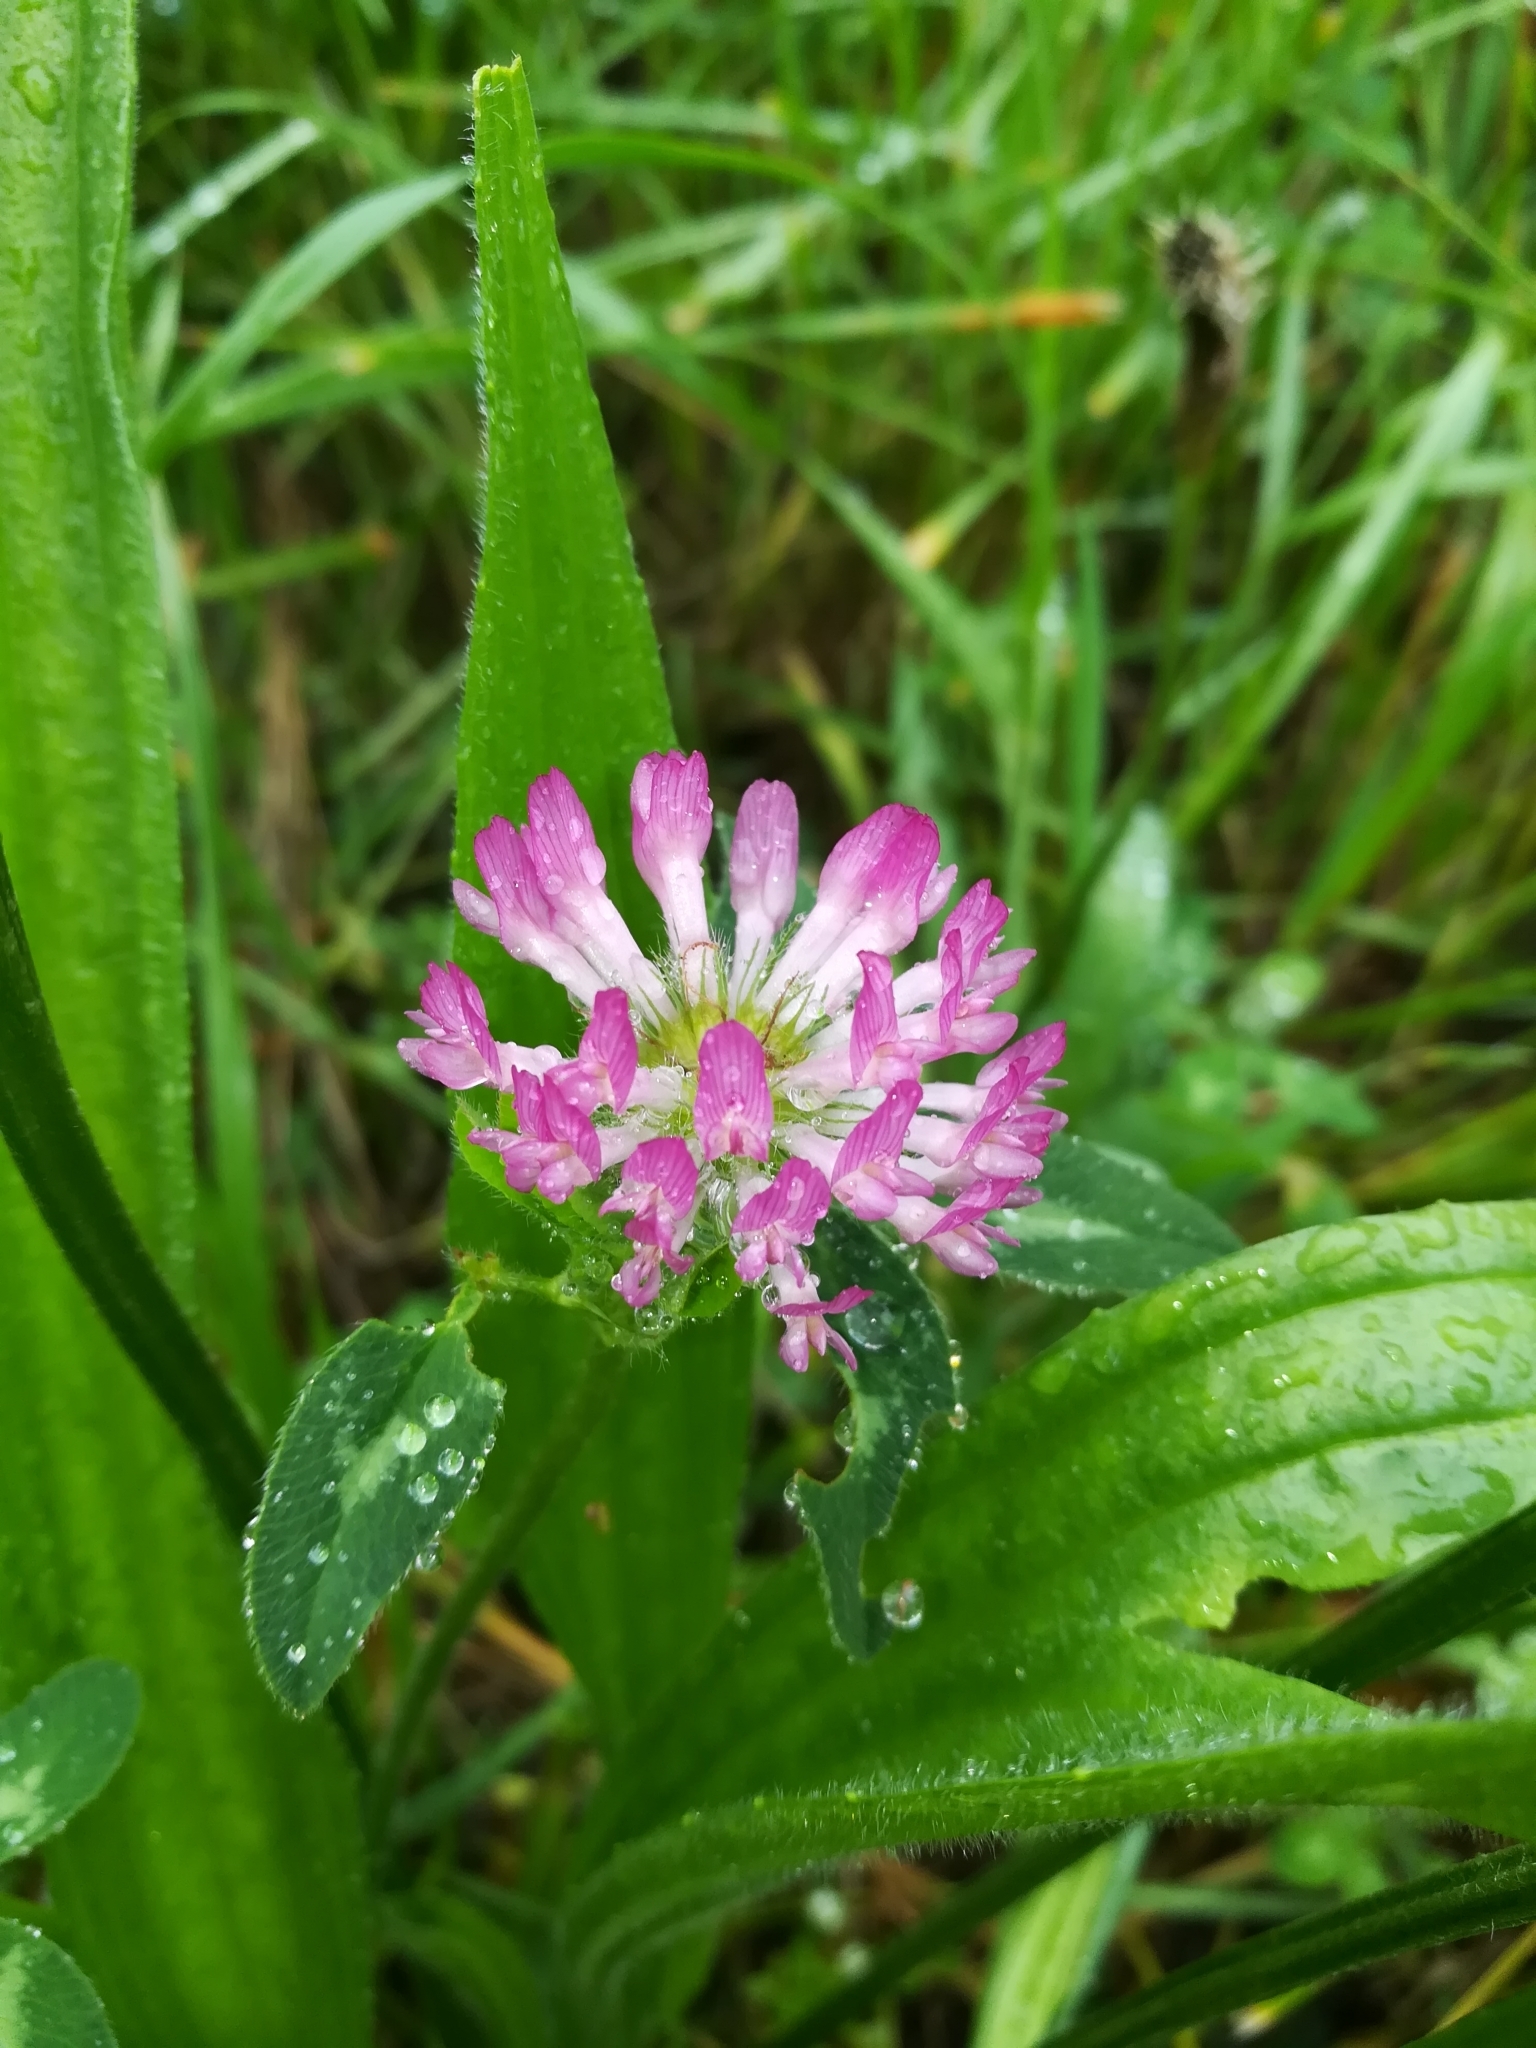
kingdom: Plantae
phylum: Tracheophyta
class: Magnoliopsida
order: Fabales
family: Fabaceae
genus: Trifolium
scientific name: Trifolium pratense
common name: Red clover
